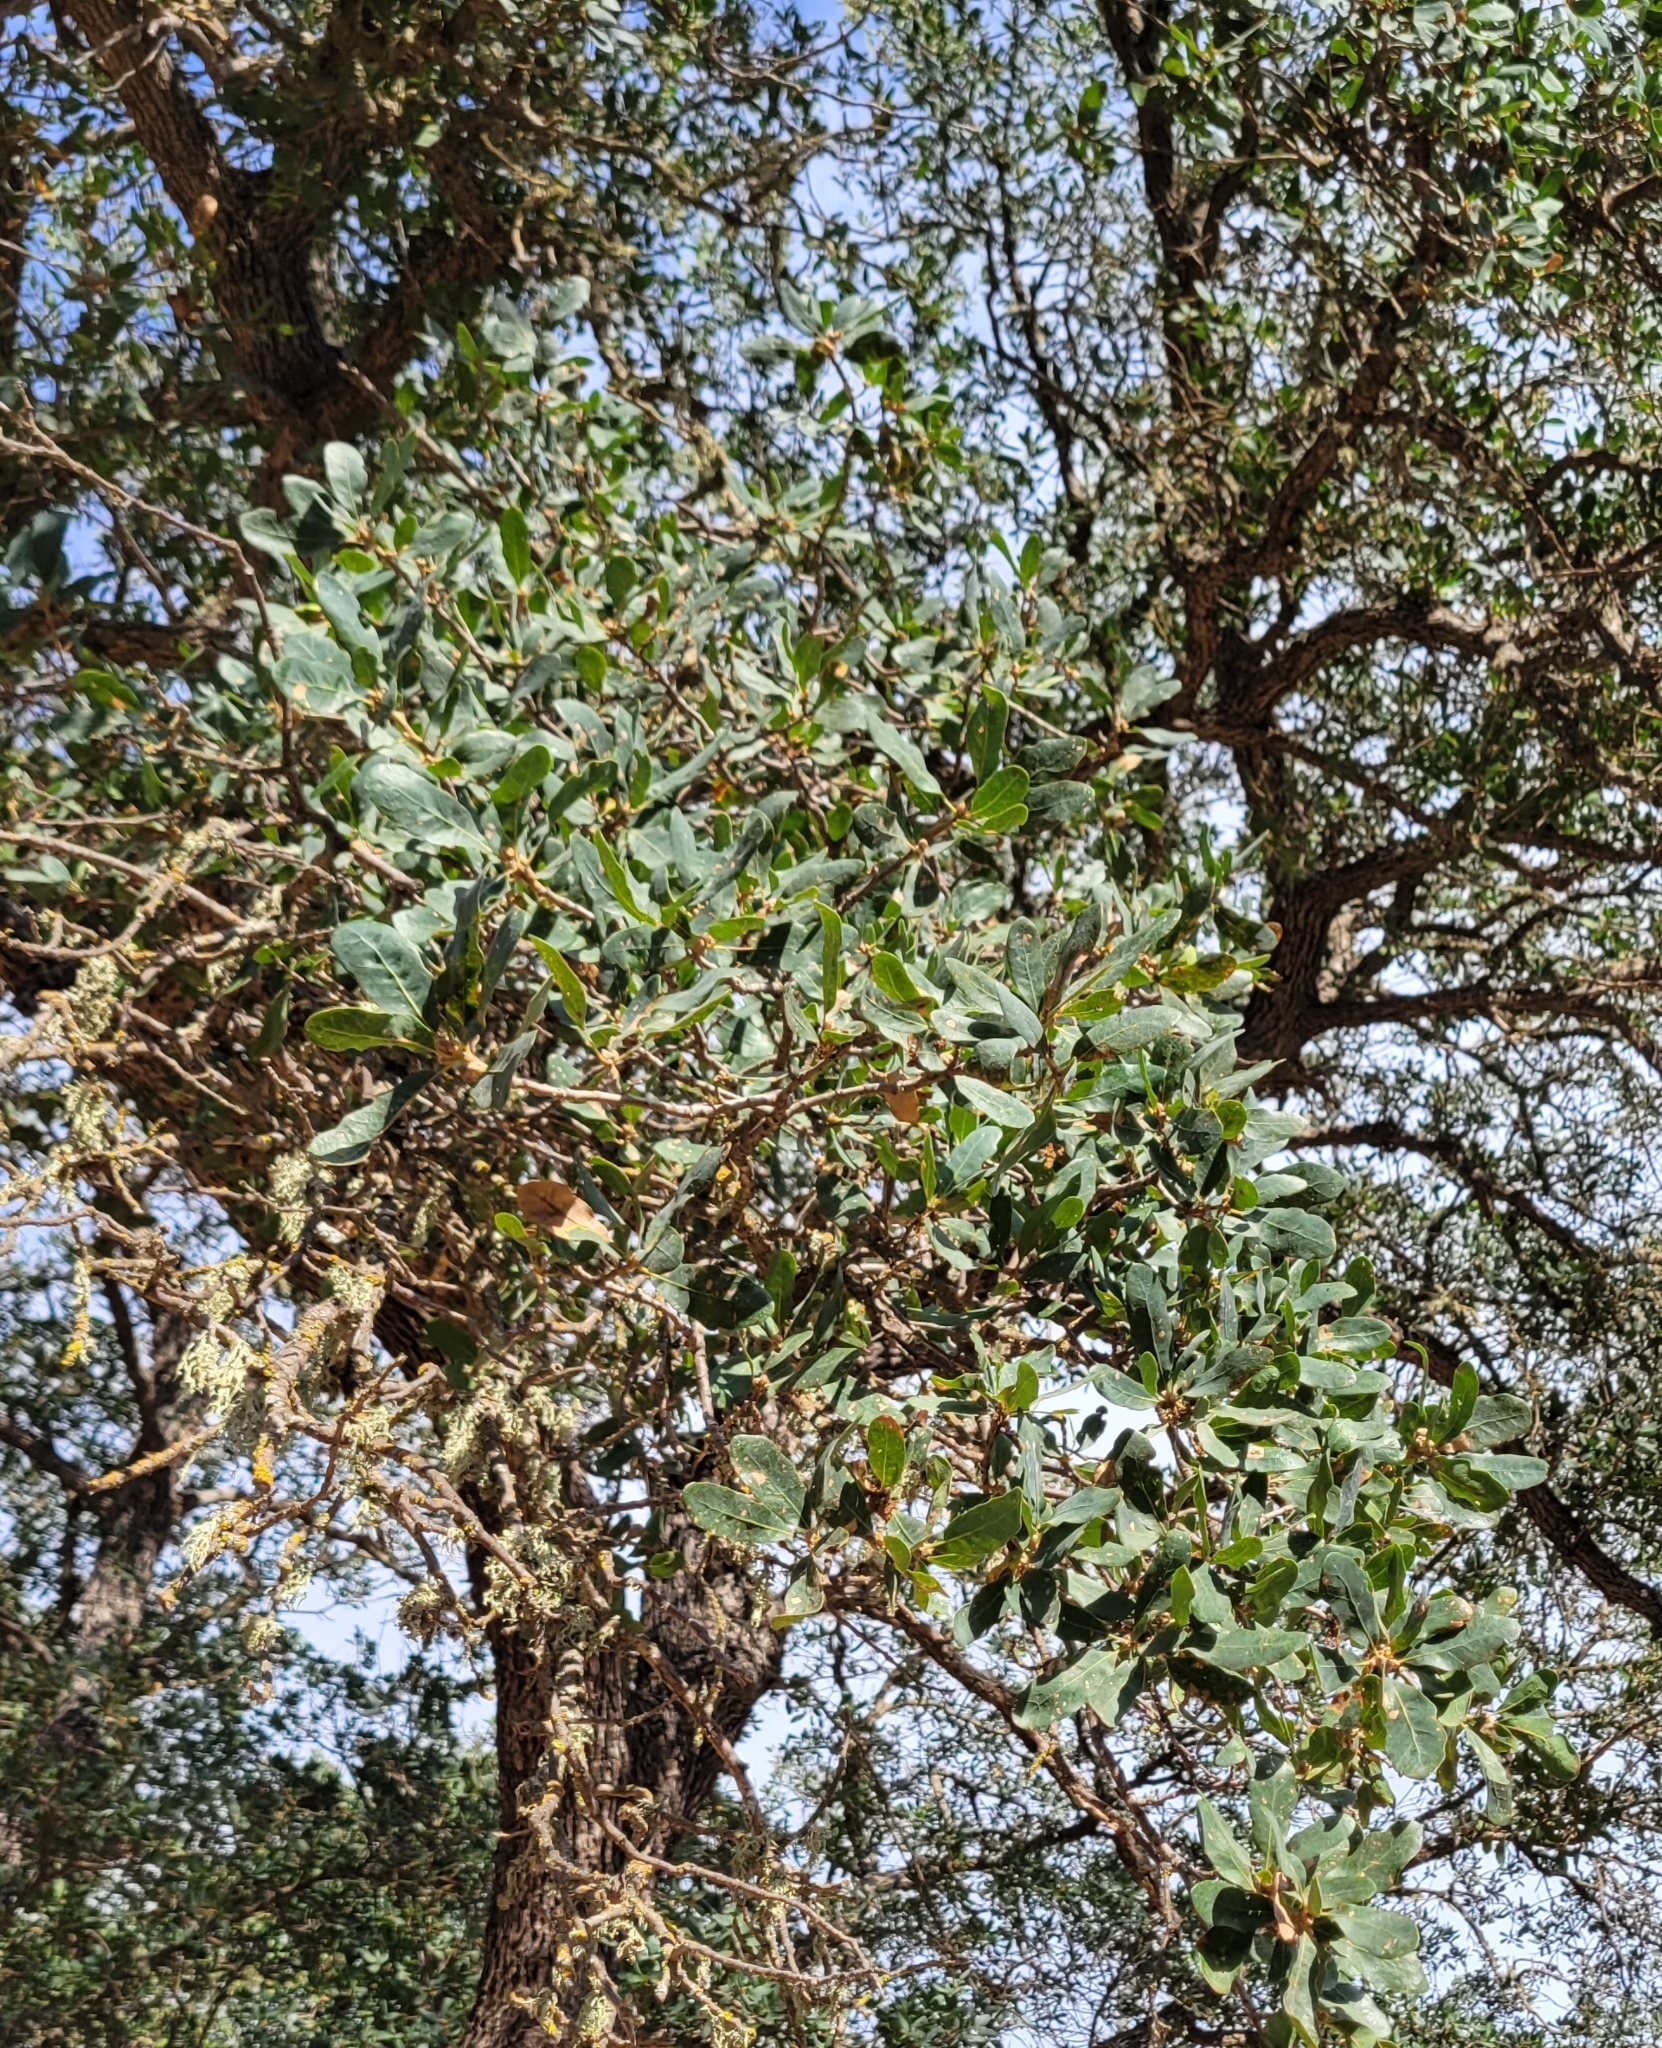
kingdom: Plantae
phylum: Tracheophyta
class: Magnoliopsida
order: Fagales
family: Fagaceae
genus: Quercus
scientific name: Quercus douglasii
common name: Blue oak
